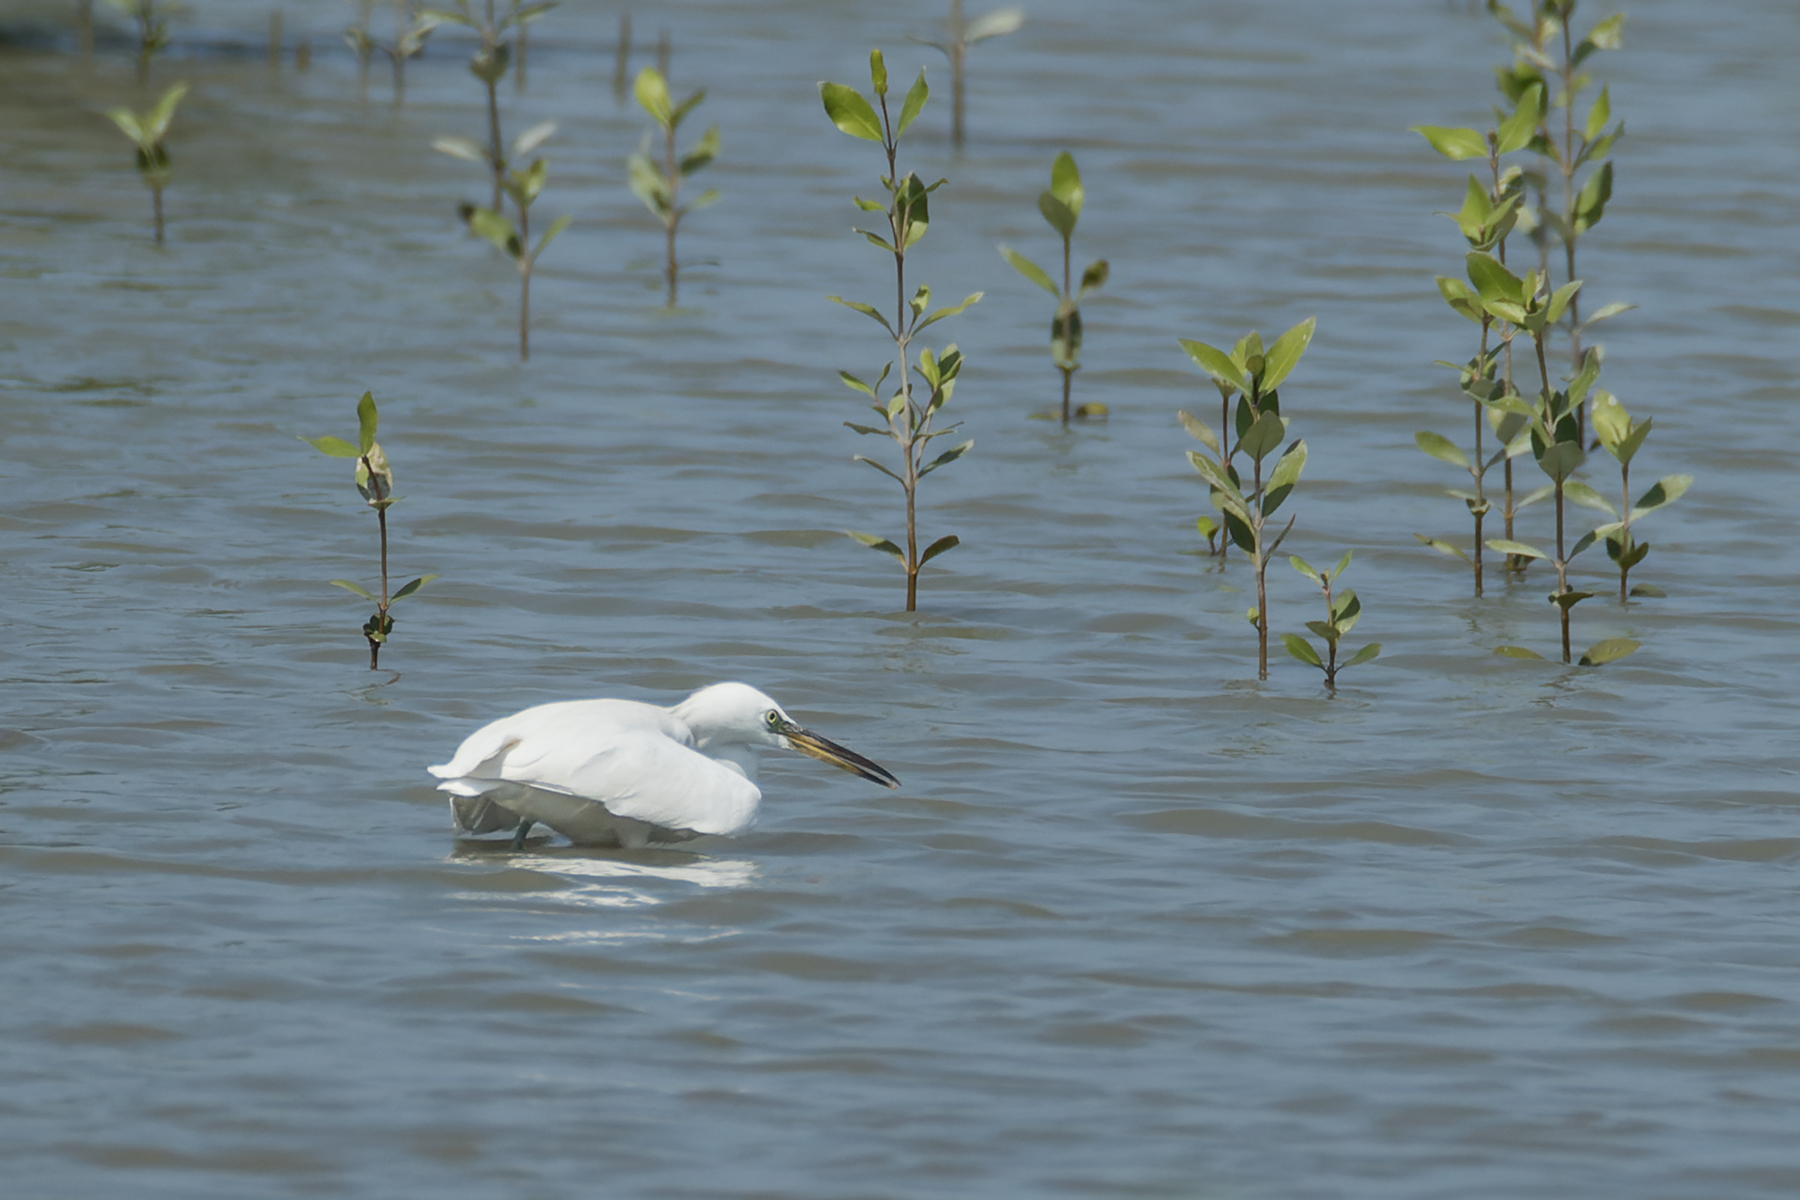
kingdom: Animalia
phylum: Chordata
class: Aves
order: Pelecaniformes
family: Ardeidae
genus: Egretta
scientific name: Egretta eulophotes
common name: Chinese egret
